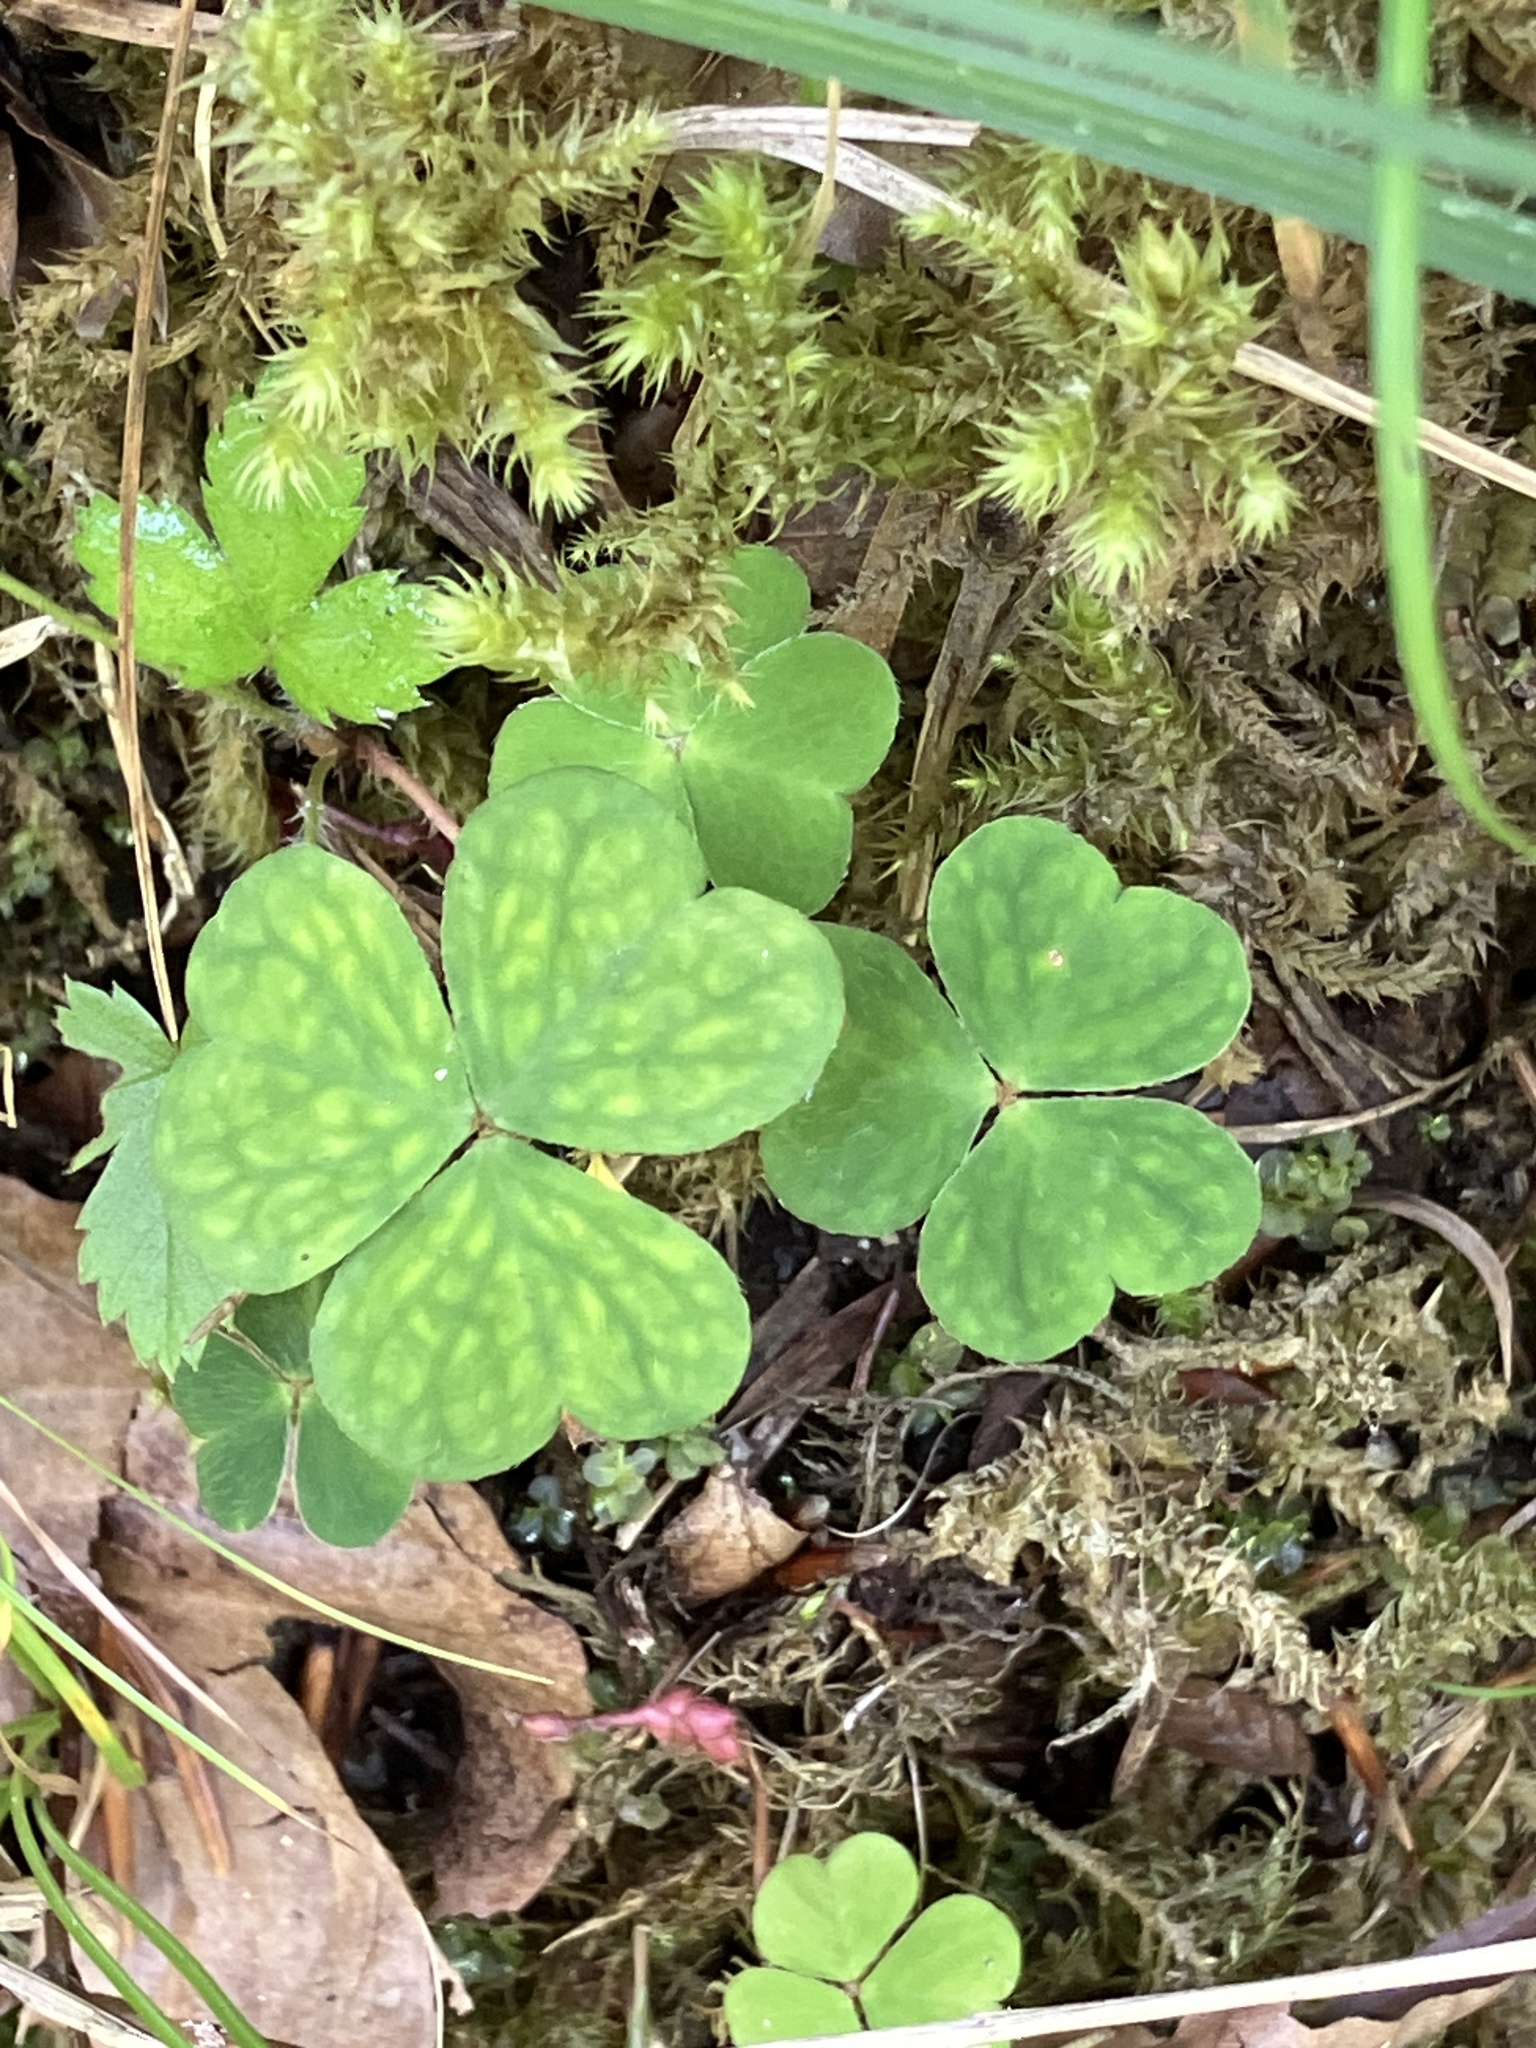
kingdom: Plantae
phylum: Tracheophyta
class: Magnoliopsida
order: Oxalidales
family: Oxalidaceae
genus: Oxalis
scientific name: Oxalis acetosella
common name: Wood-sorrel
